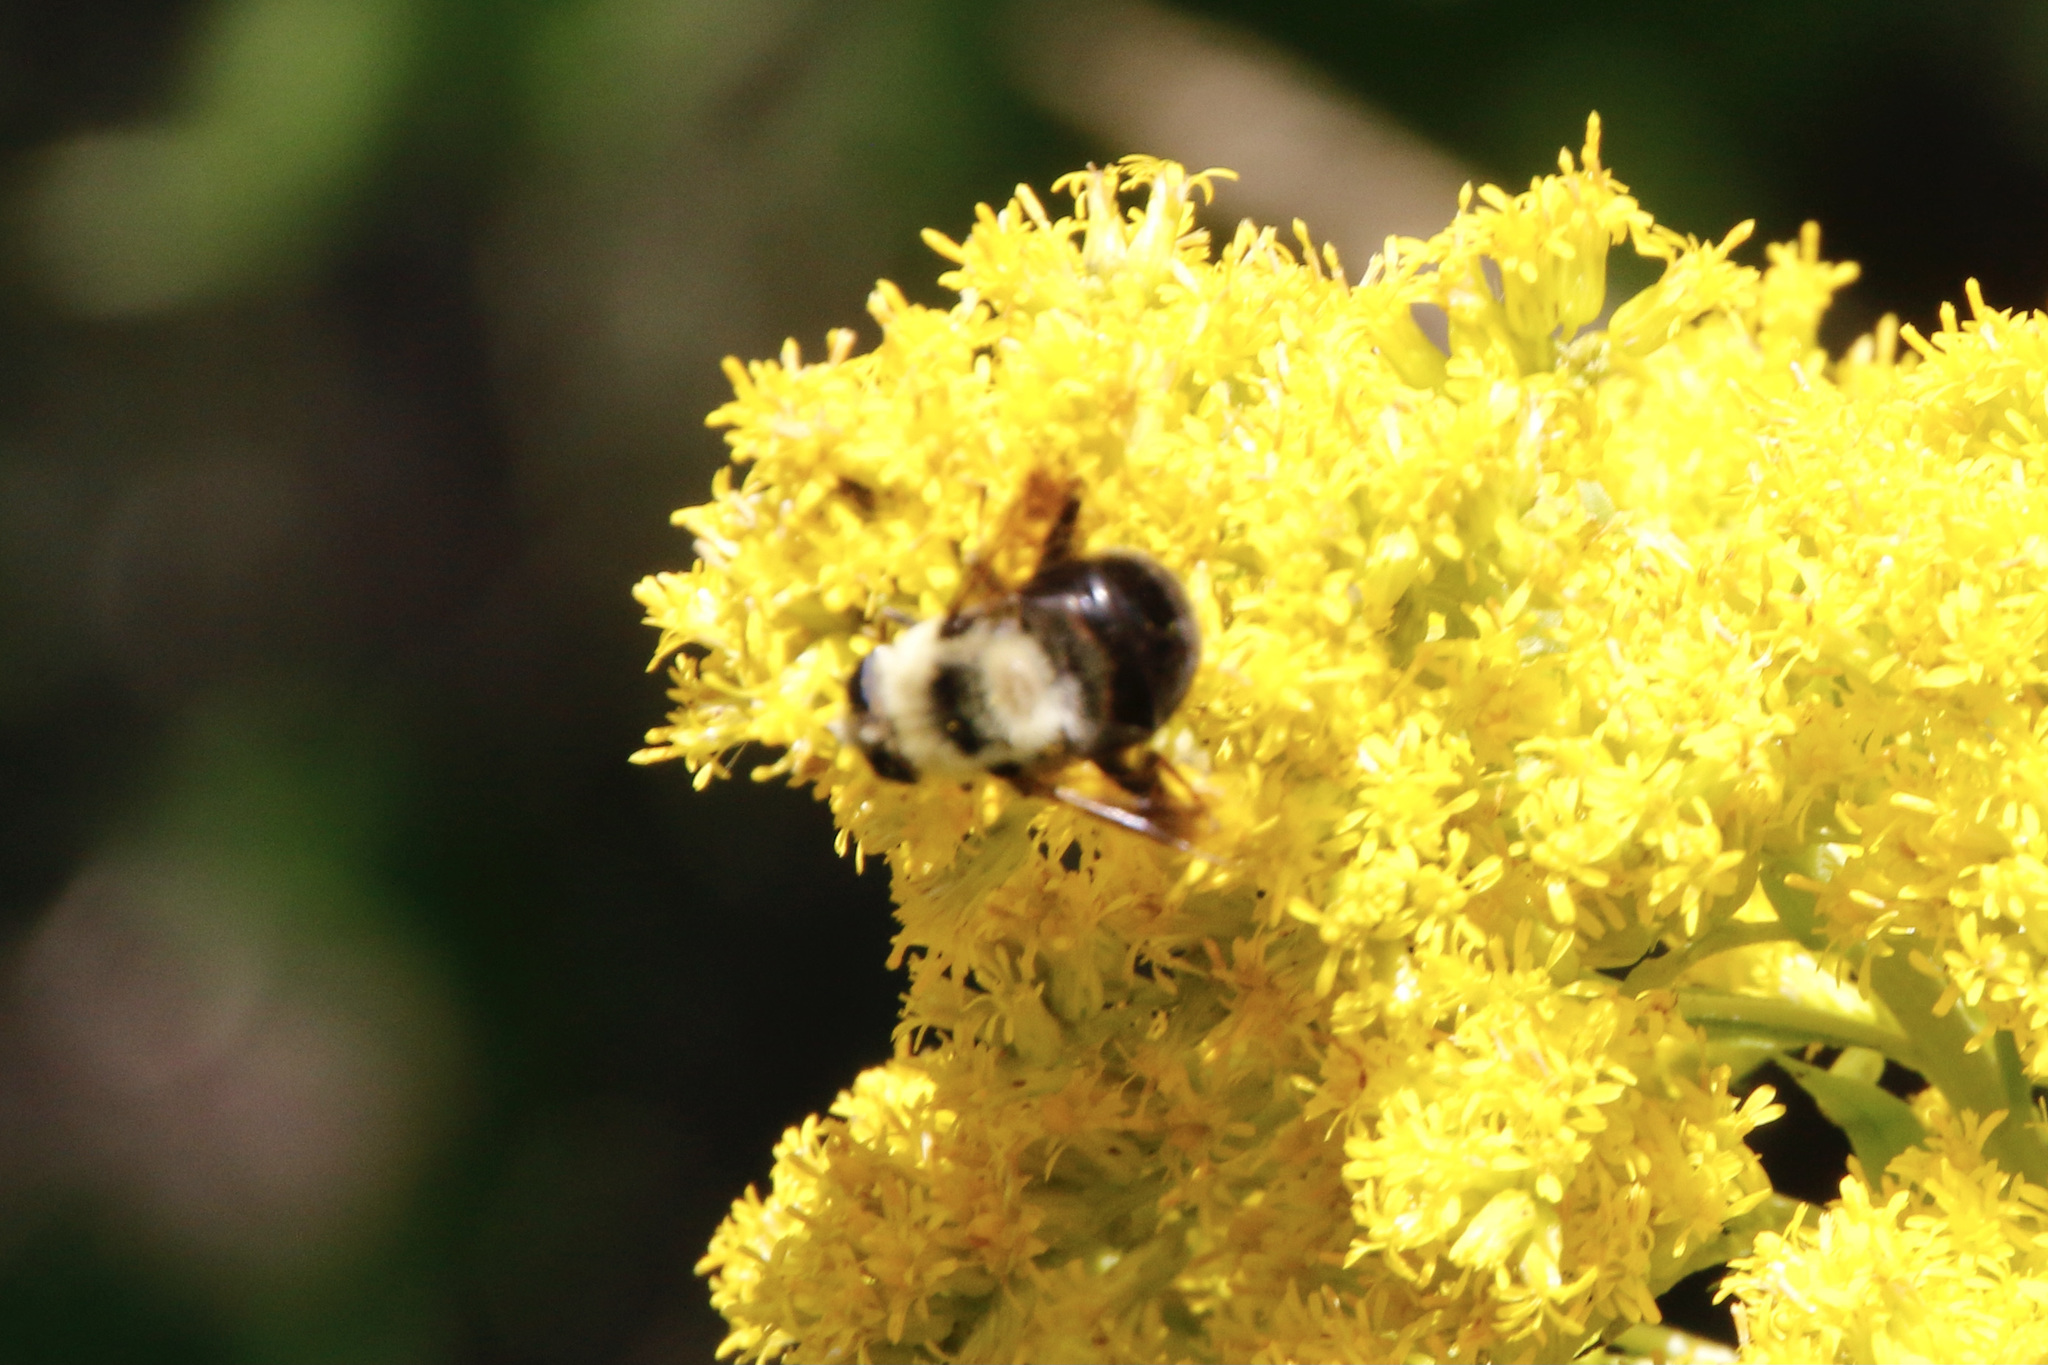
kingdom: Animalia
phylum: Arthropoda
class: Insecta
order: Diptera
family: Syrphidae
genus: Eristalis
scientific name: Eristalis flavipes
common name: Orange-legged drone fly
